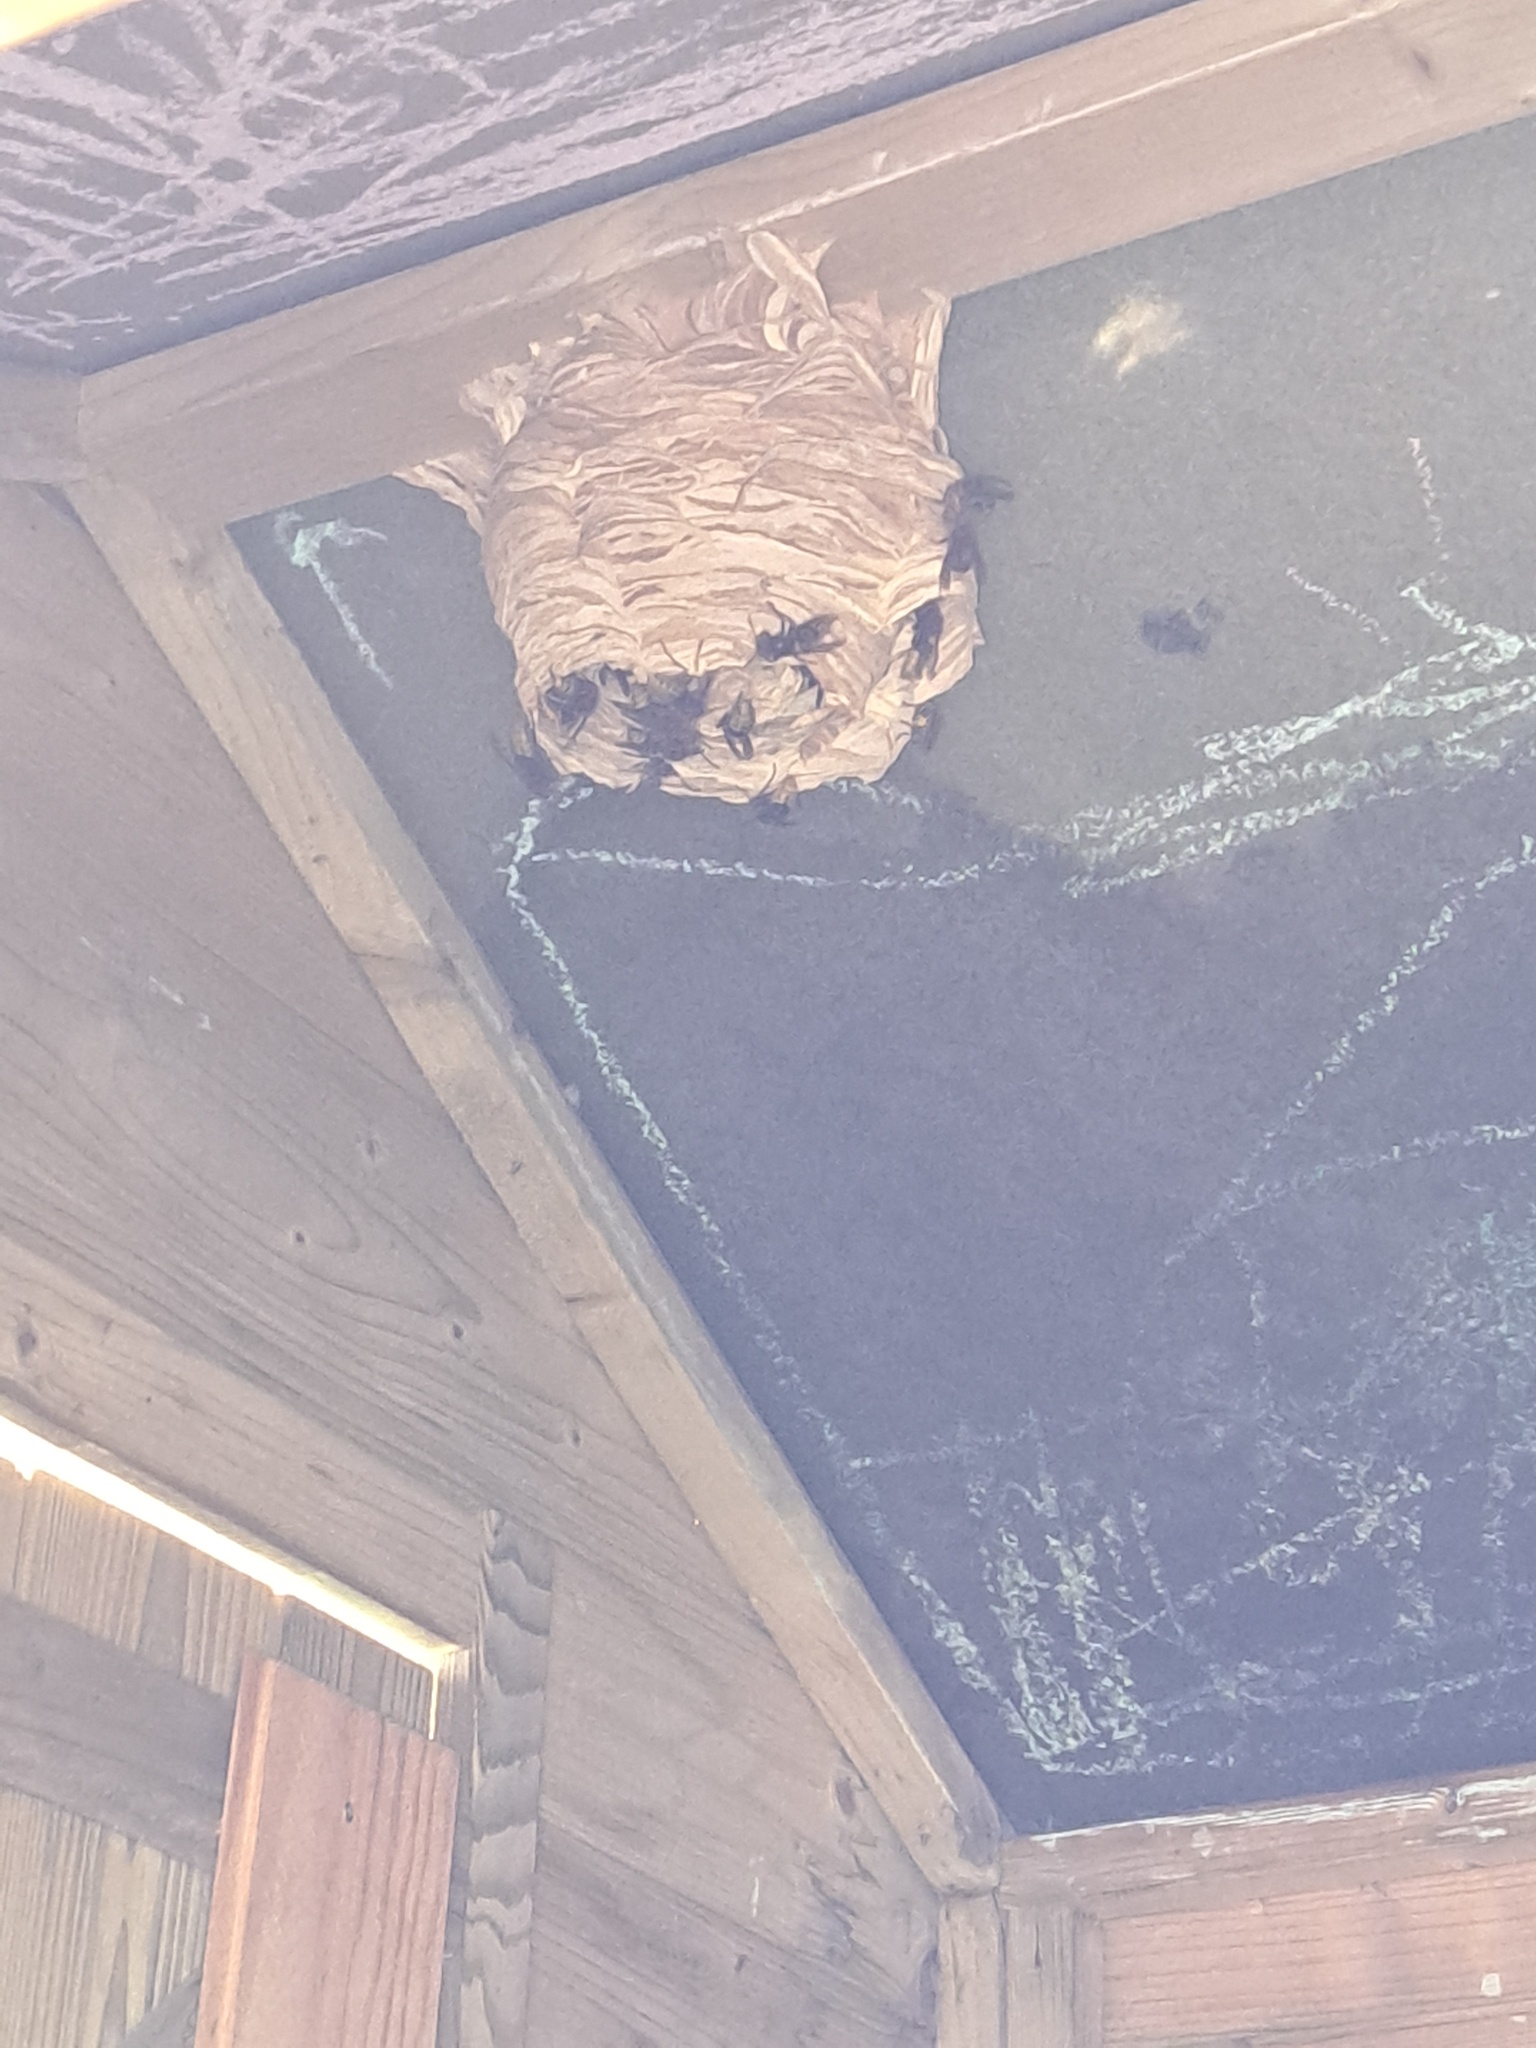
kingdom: Animalia
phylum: Arthropoda
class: Insecta
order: Hymenoptera
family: Vespidae
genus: Vespa
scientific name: Vespa crabro
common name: Hornet
